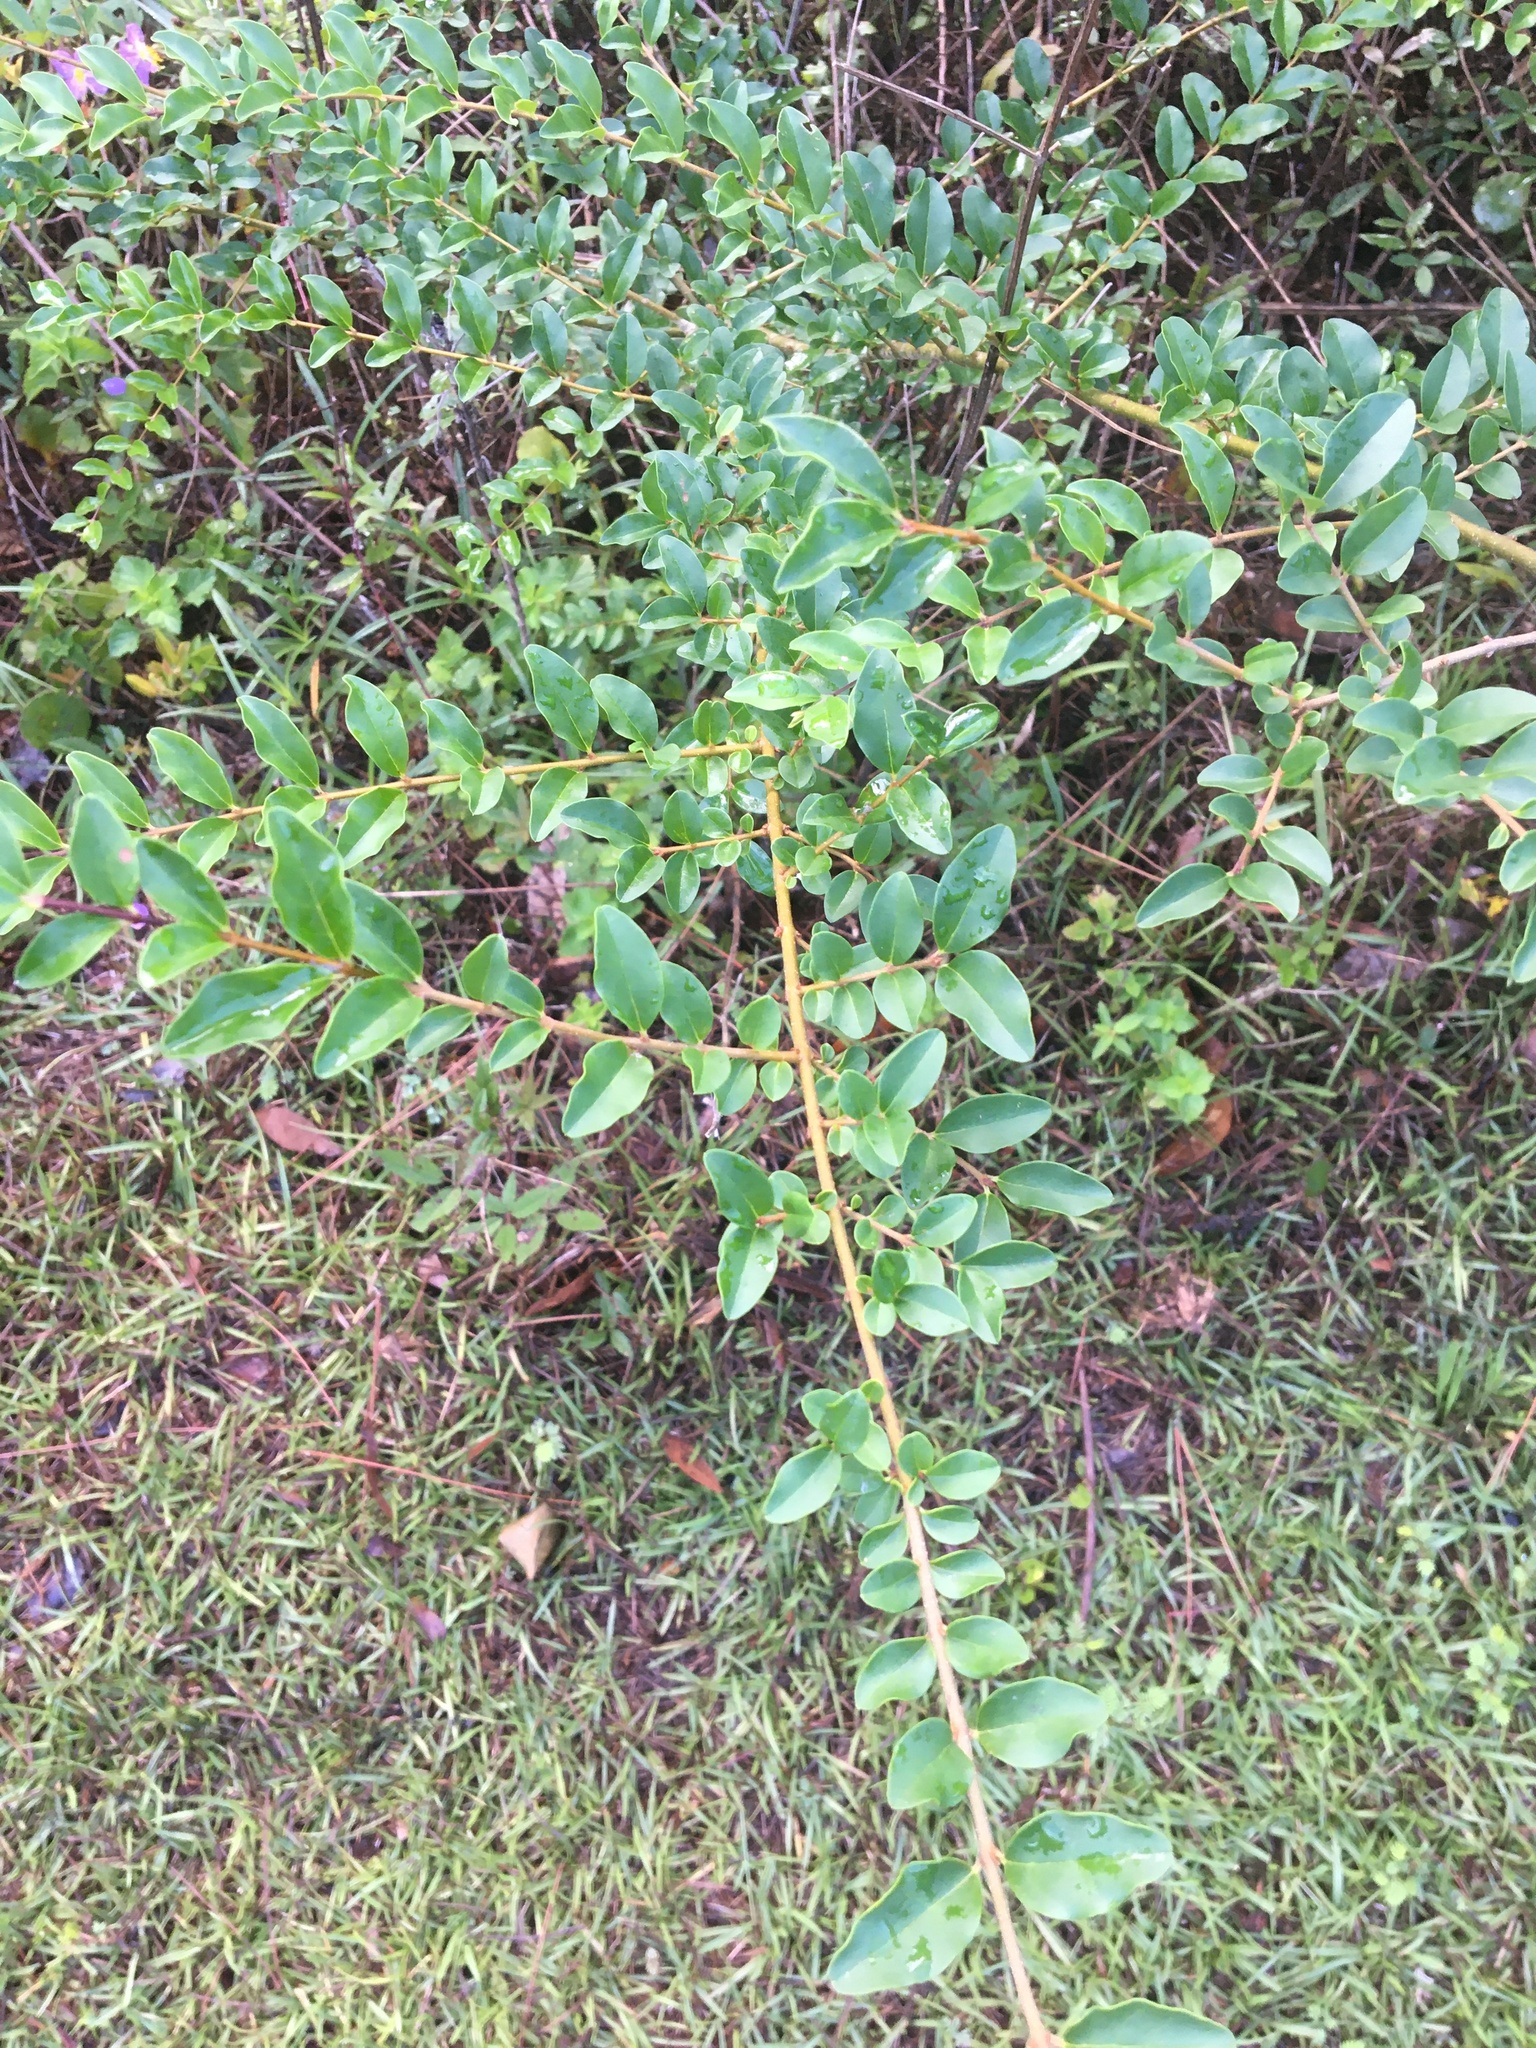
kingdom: Plantae
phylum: Tracheophyta
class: Magnoliopsida
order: Lamiales
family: Oleaceae
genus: Ligustrum
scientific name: Ligustrum sinense
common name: Chinese privet
